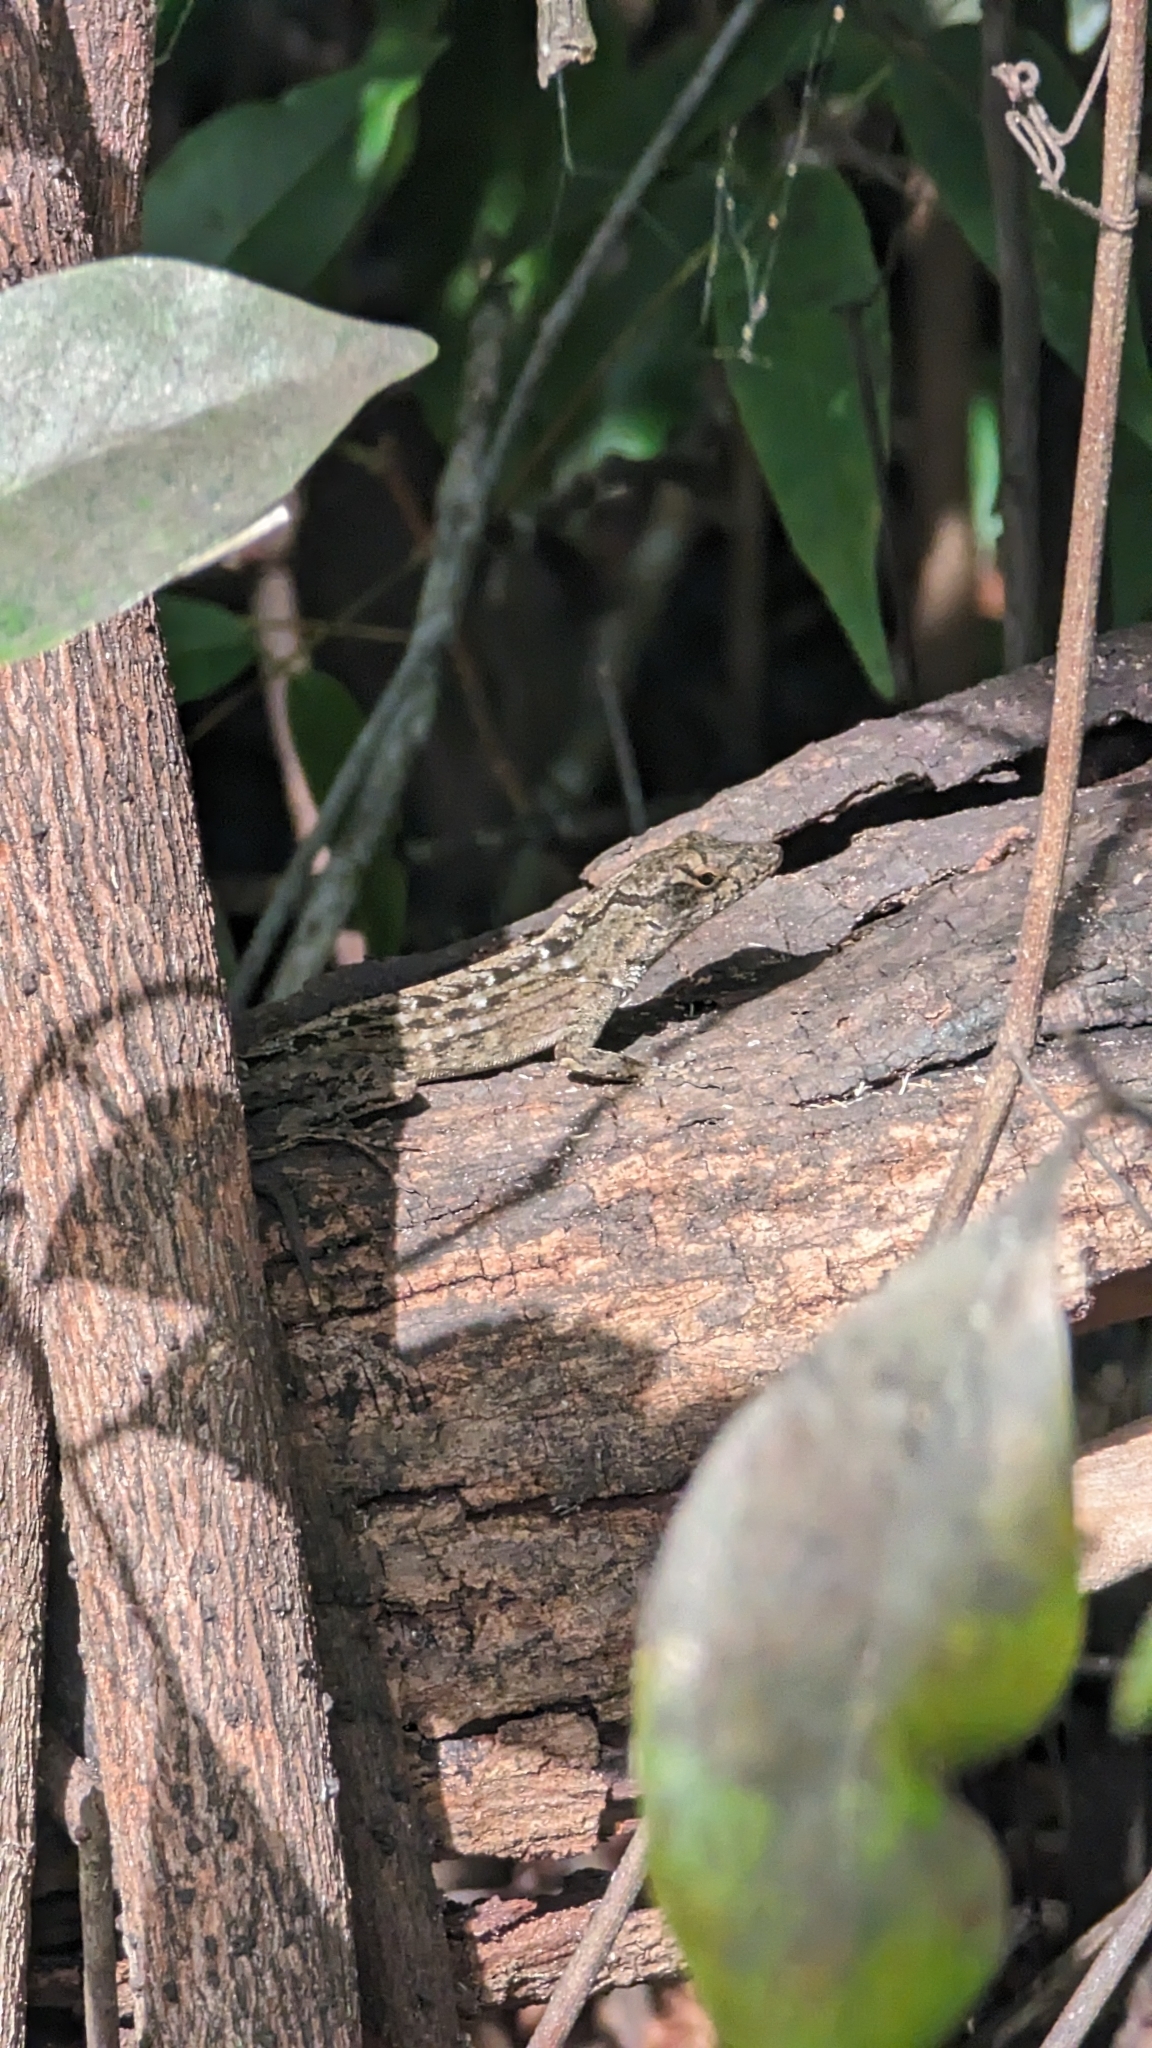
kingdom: Animalia
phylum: Chordata
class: Squamata
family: Dactyloidae
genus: Anolis
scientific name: Anolis sagrei
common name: Brown anole
